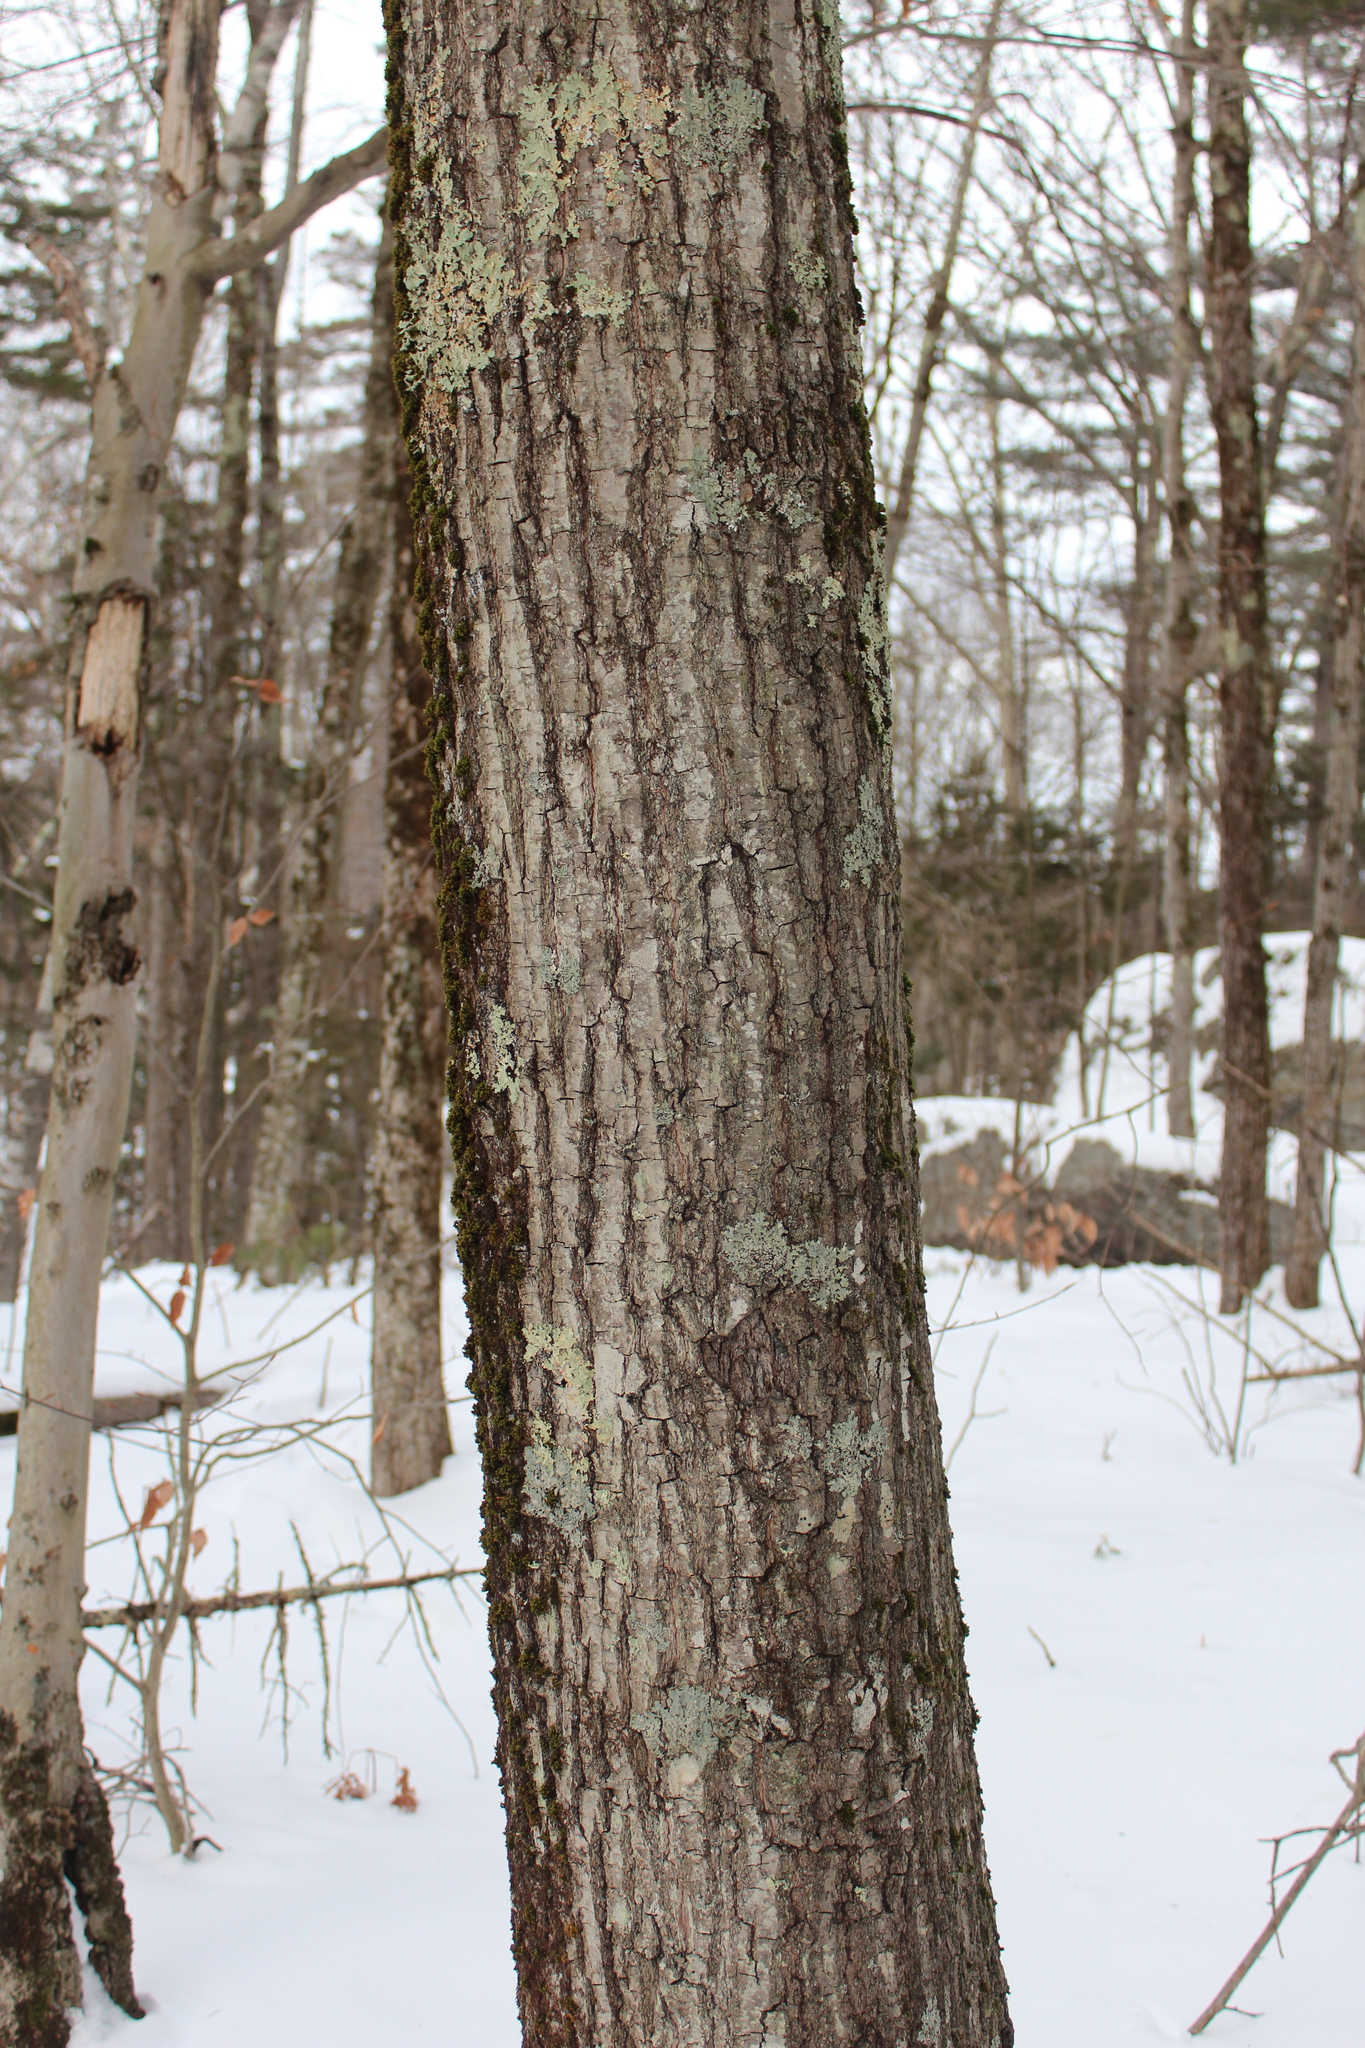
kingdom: Plantae
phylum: Tracheophyta
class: Magnoliopsida
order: Fagales
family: Fagaceae
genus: Quercus
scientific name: Quercus rubra
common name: Red oak
